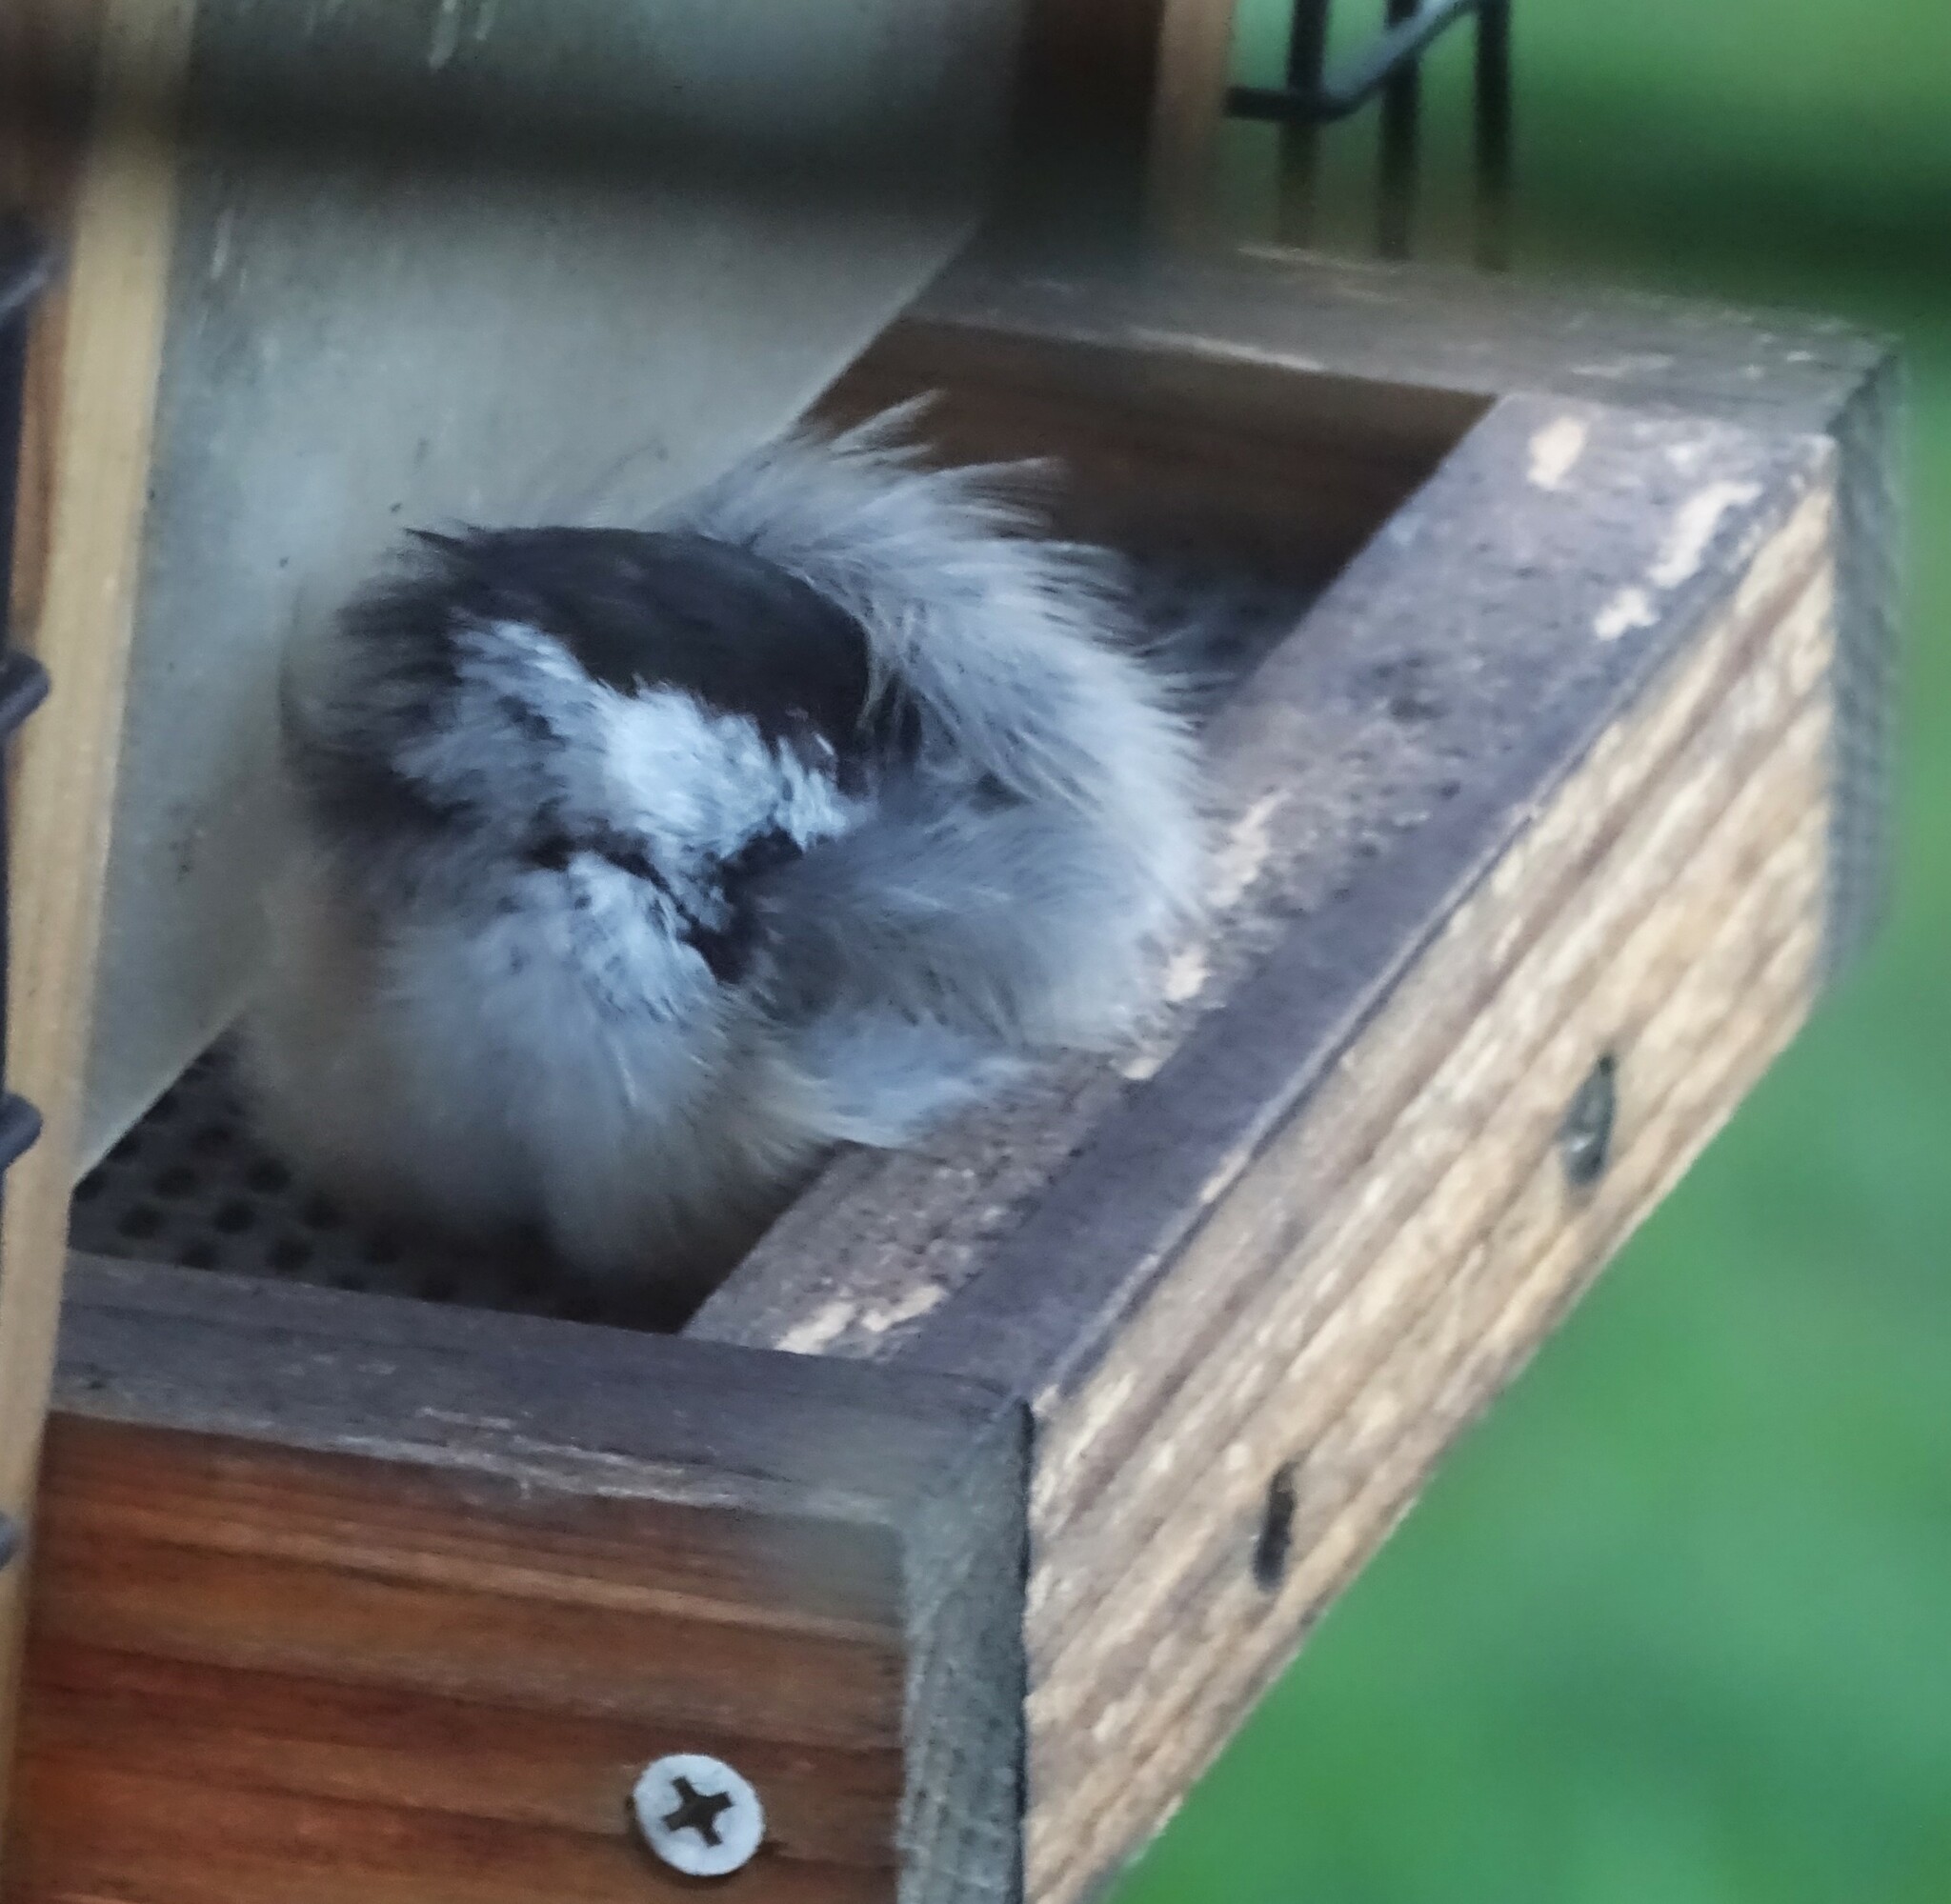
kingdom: Animalia
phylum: Chordata
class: Aves
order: Passeriformes
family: Paridae
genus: Poecile
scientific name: Poecile atricapillus
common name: Black-capped chickadee
